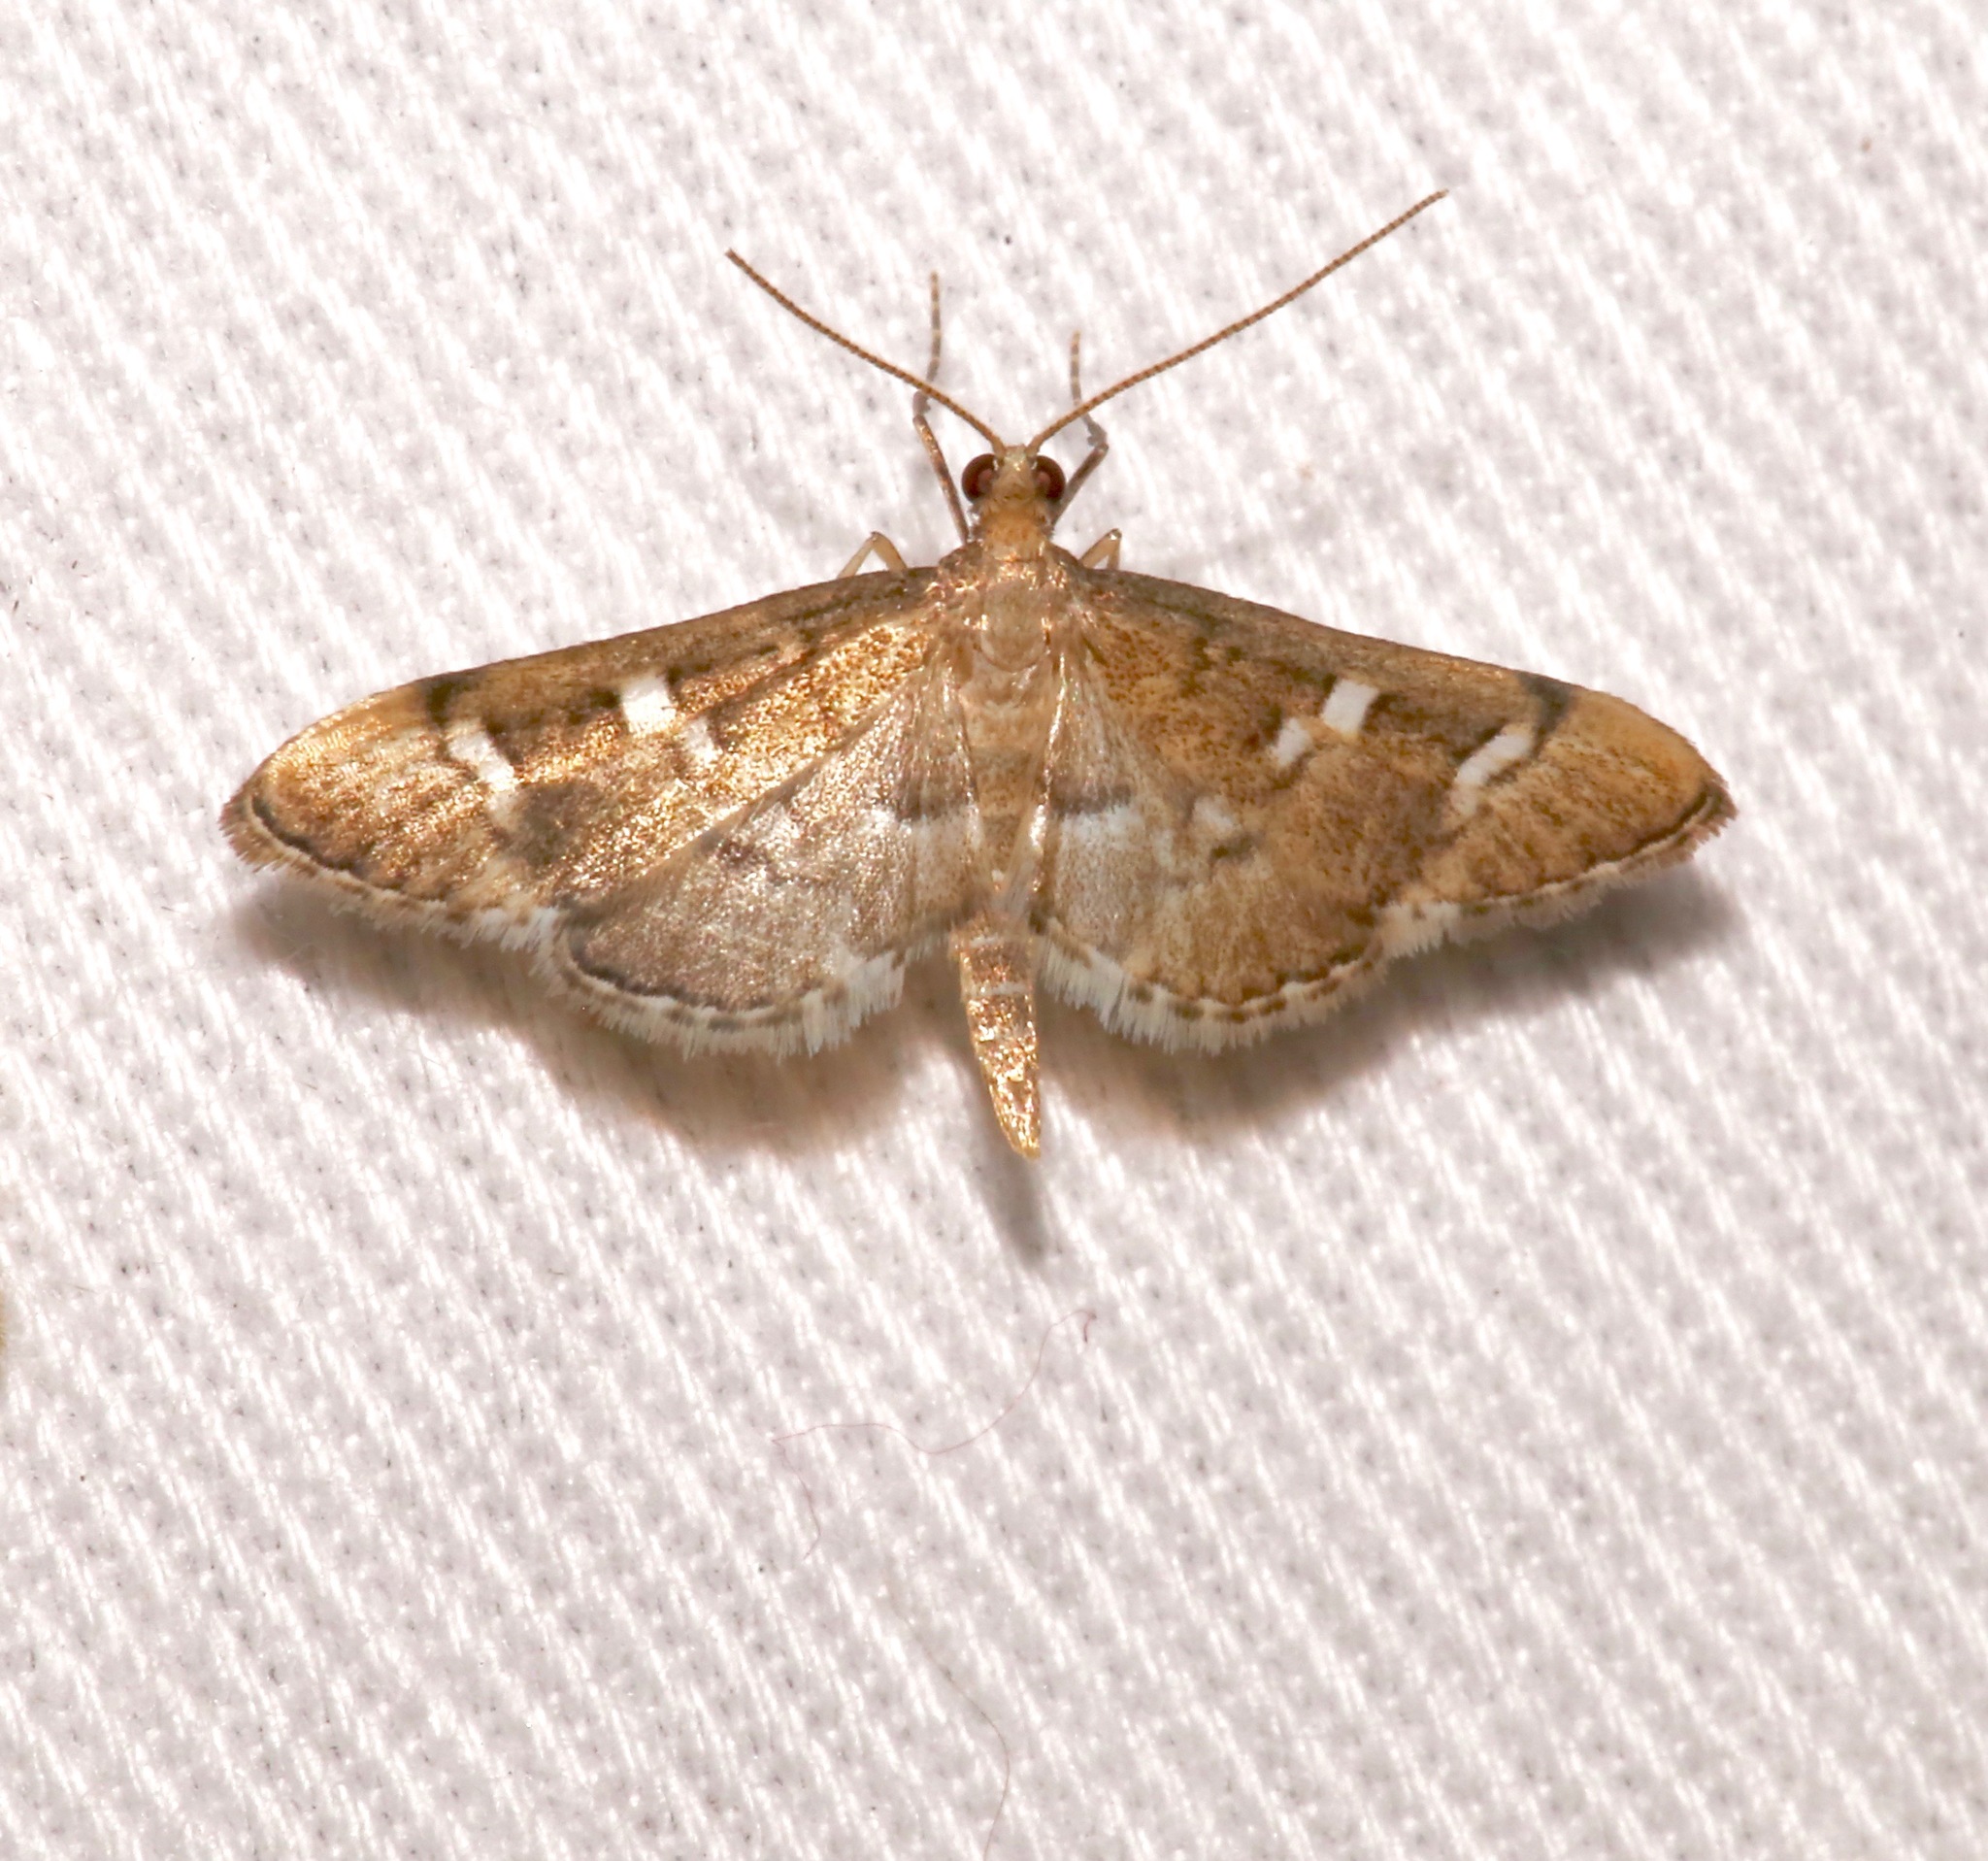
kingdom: Animalia
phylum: Arthropoda
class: Insecta
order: Lepidoptera
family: Crambidae
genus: Desmia
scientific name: Desmia
